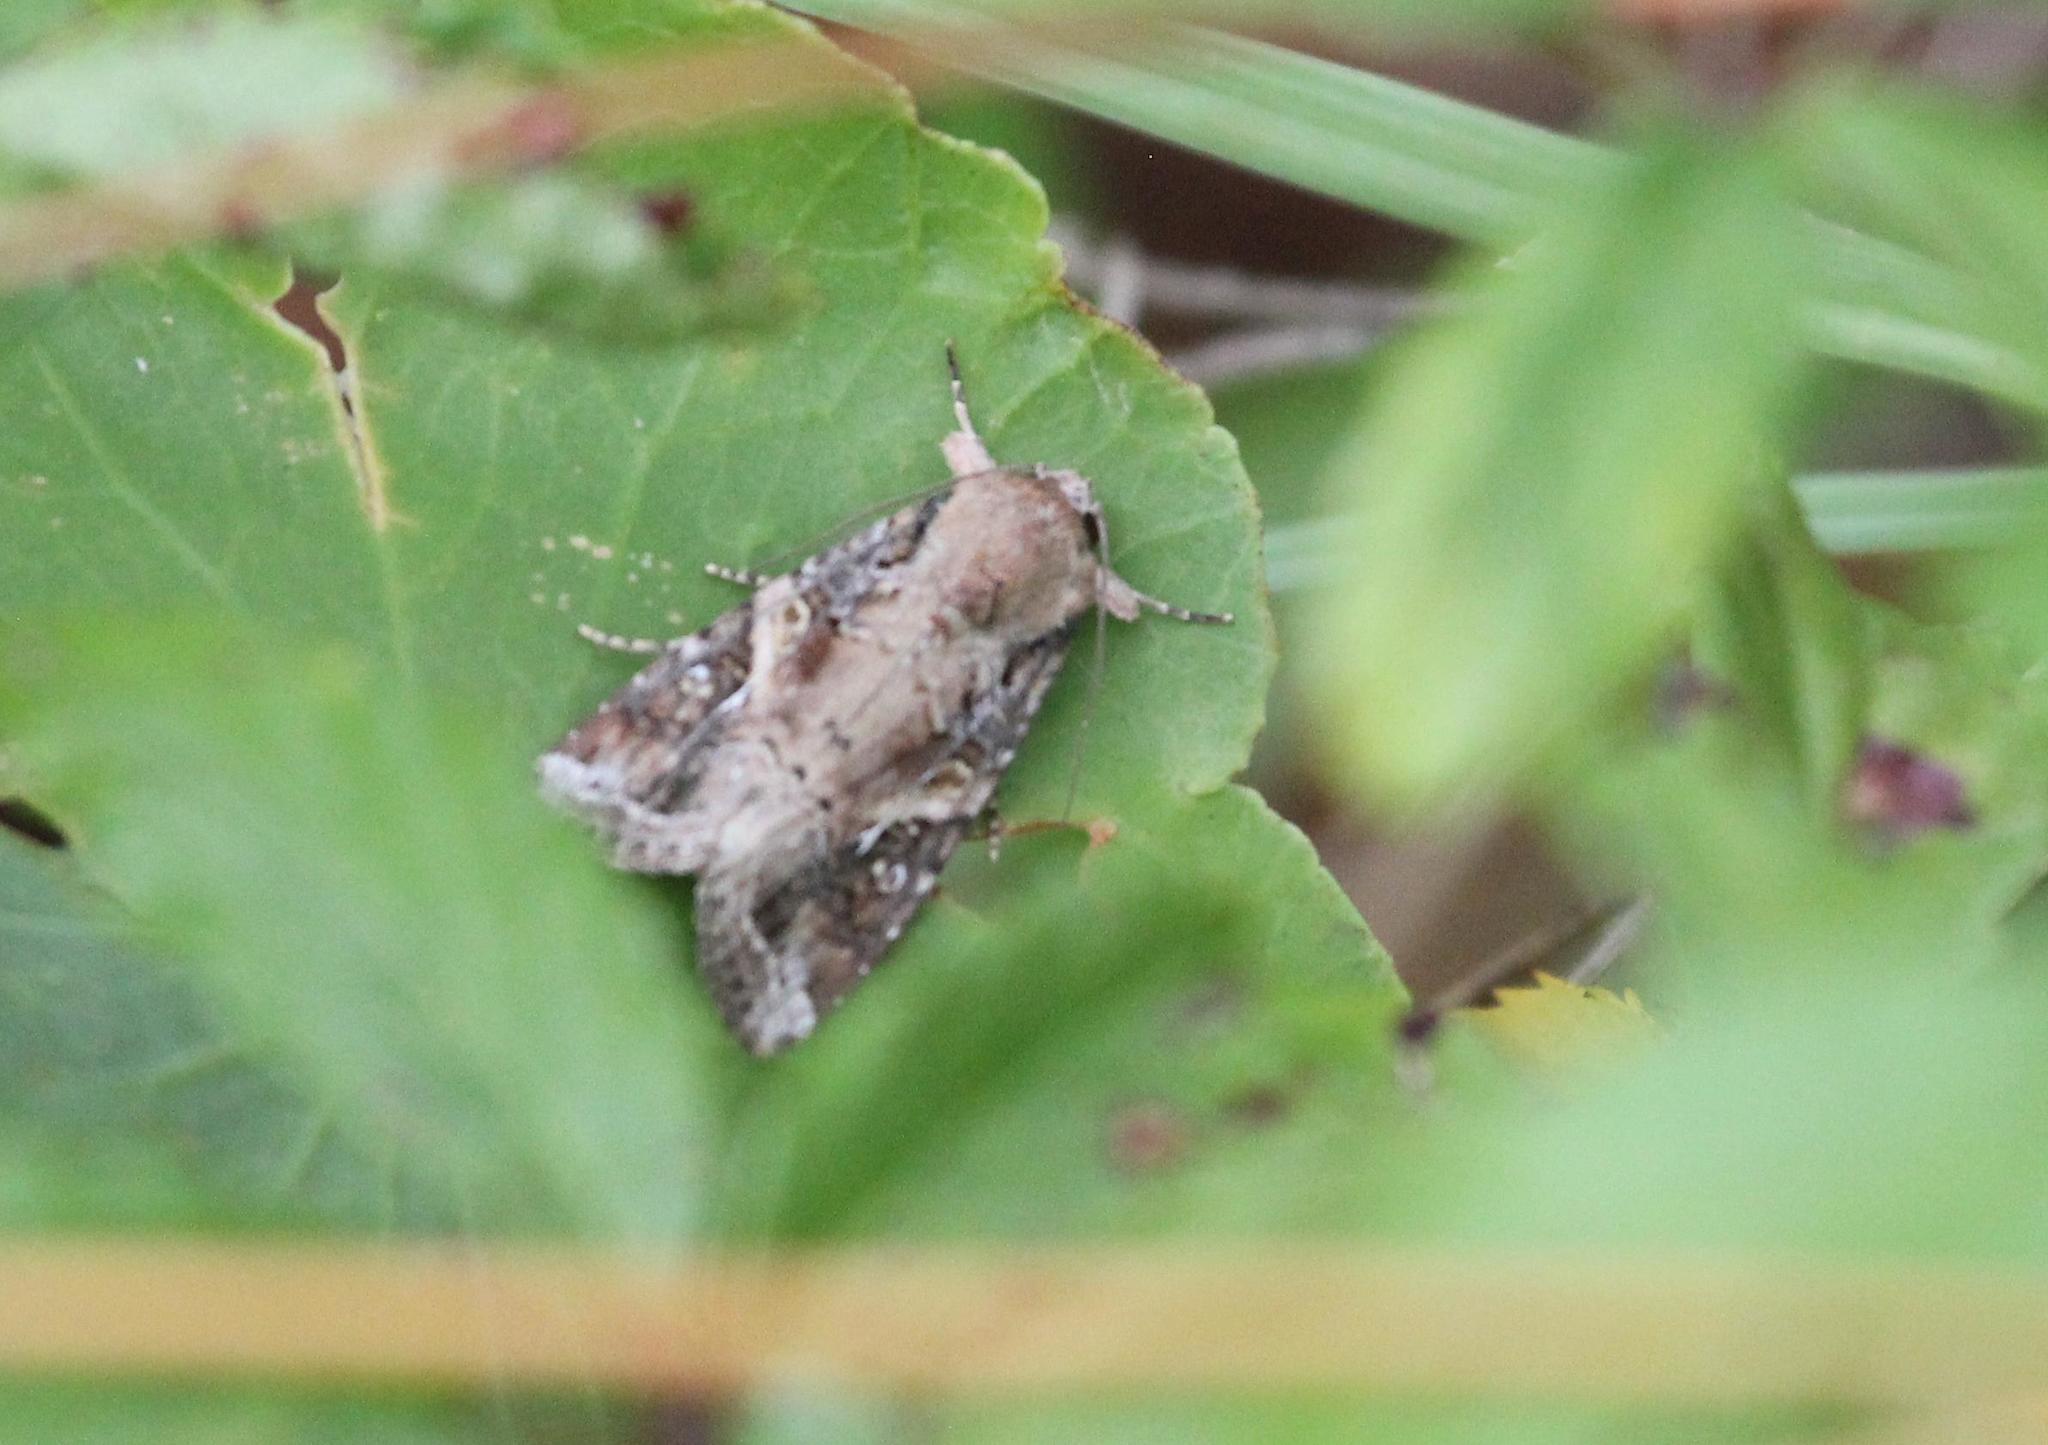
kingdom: Animalia
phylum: Arthropoda
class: Insecta
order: Lepidoptera
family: Noctuidae
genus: Spodoptera
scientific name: Spodoptera frugiperda
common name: Fall armyworm
